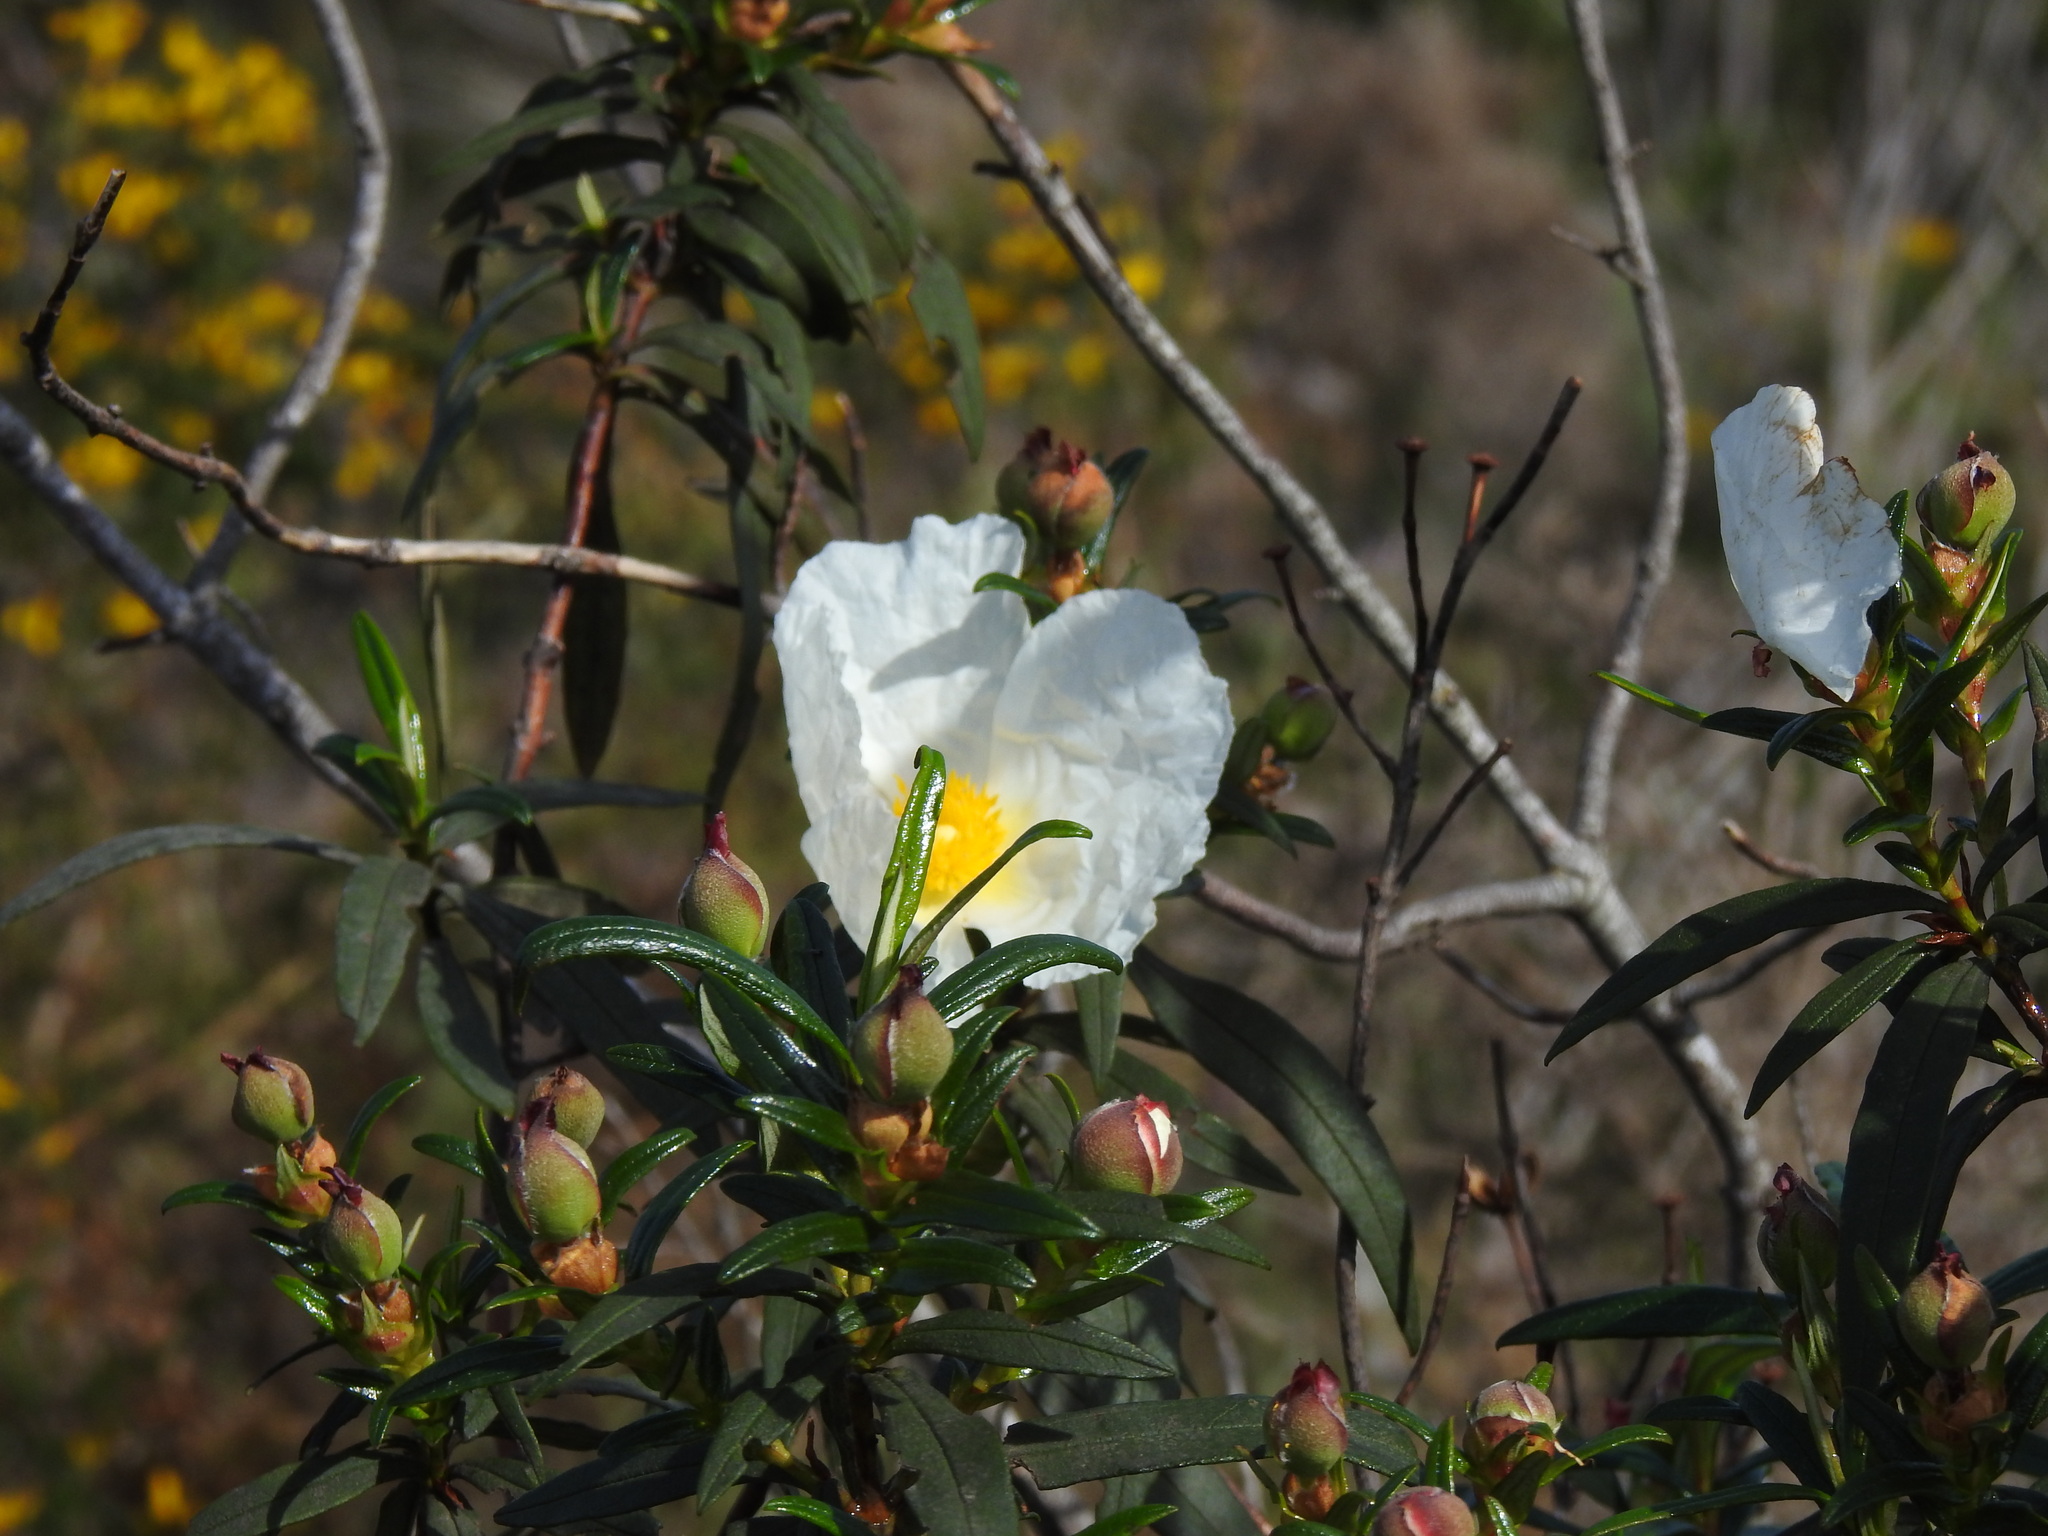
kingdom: Plantae
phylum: Tracheophyta
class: Magnoliopsida
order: Malvales
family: Cistaceae
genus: Cistus
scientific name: Cistus ladanifer
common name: Common gum cistus
